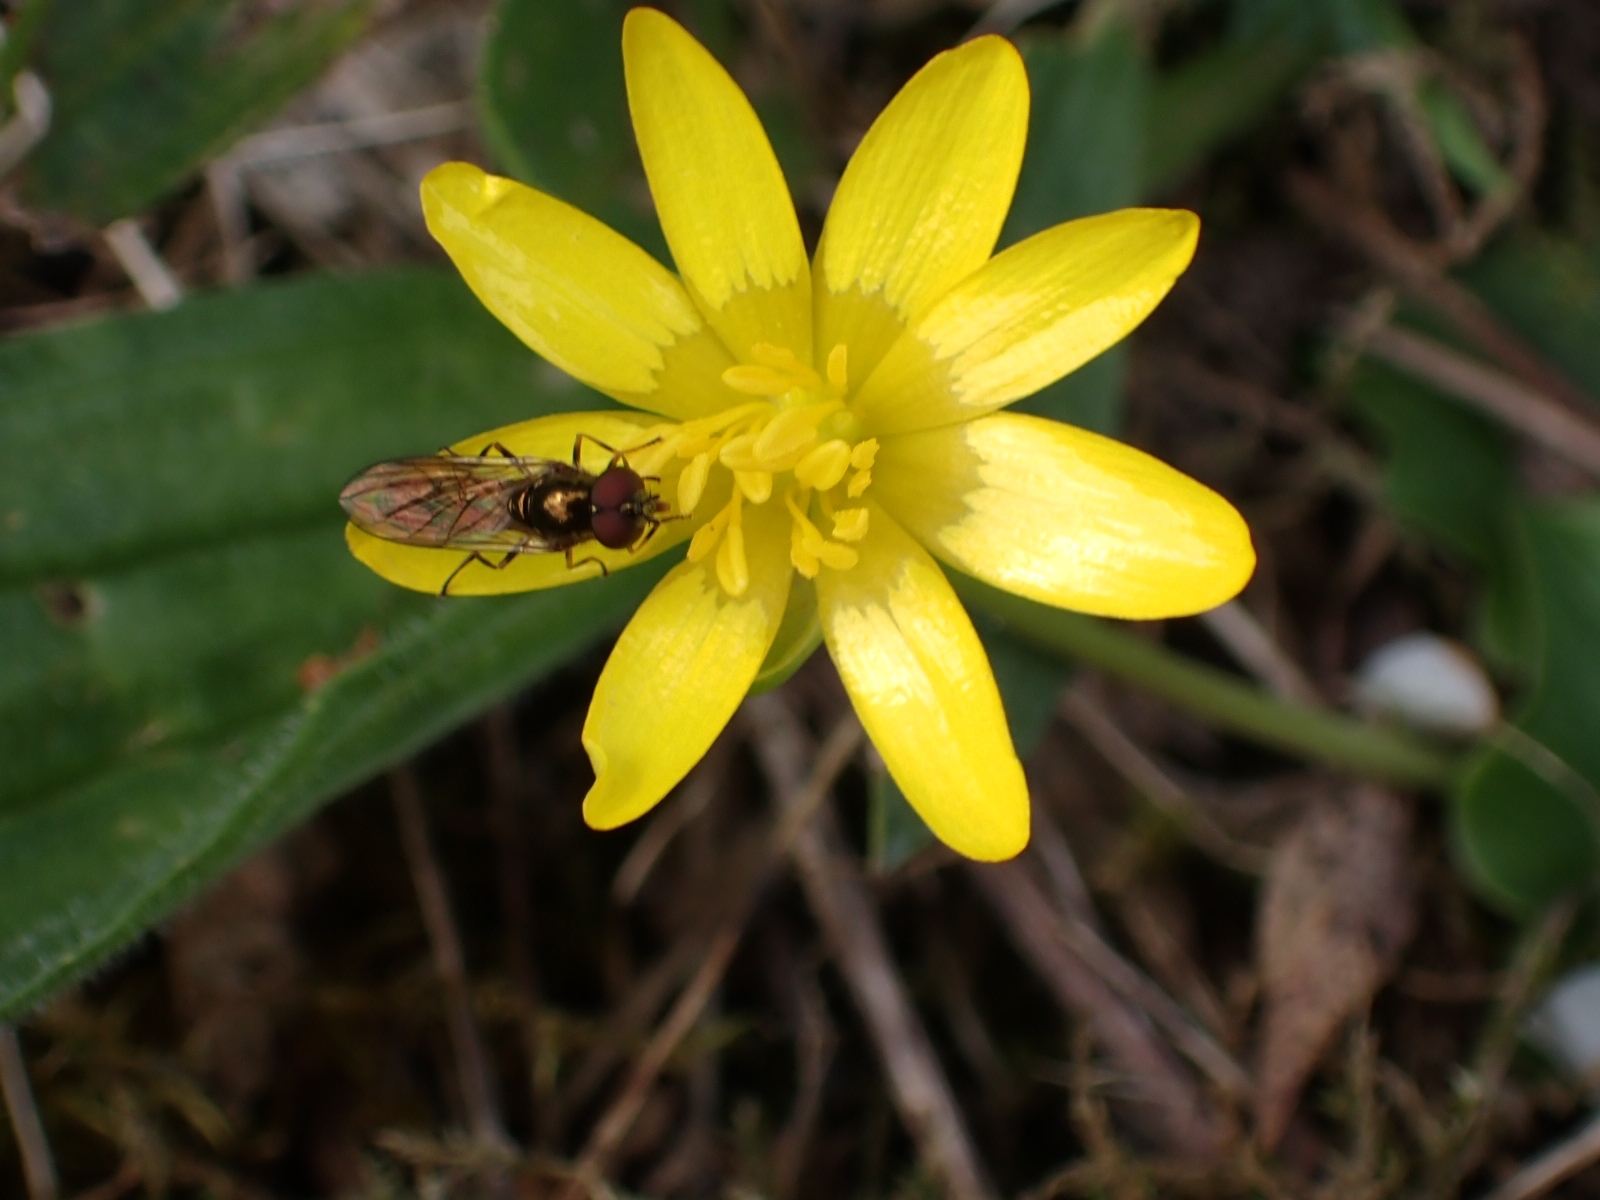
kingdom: Plantae
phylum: Tracheophyta
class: Magnoliopsida
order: Ranunculales
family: Ranunculaceae
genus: Ficaria
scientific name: Ficaria verna
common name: Lesser celandine
